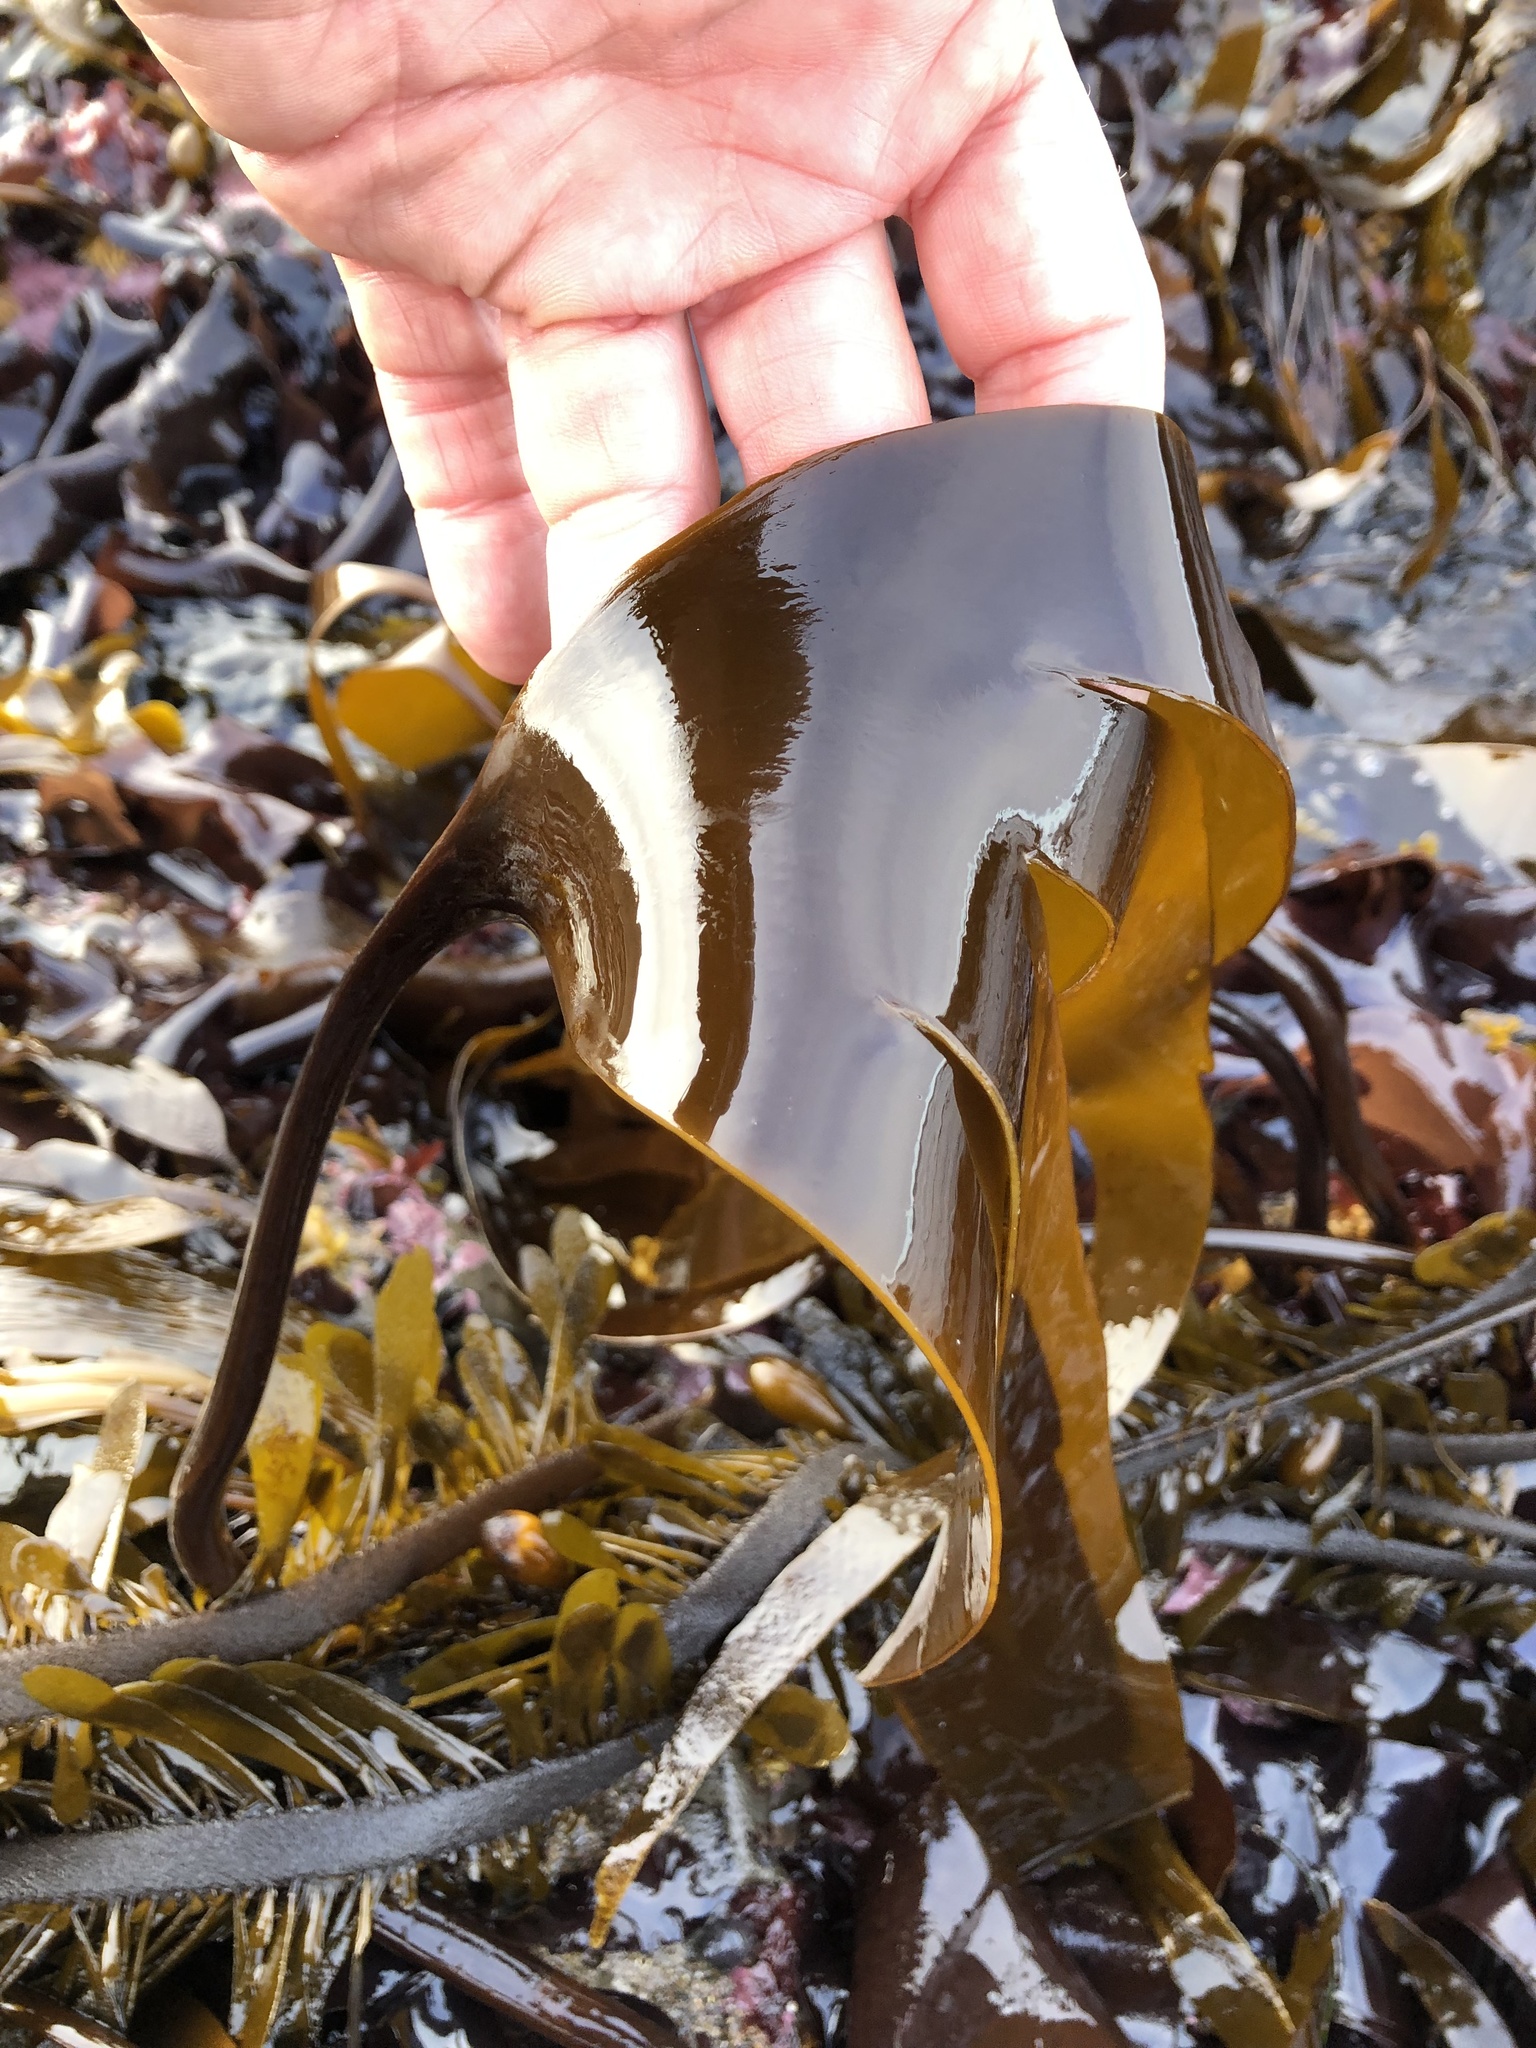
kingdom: Chromista
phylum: Ochrophyta
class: Phaeophyceae
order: Laminariales
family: Laminariaceae
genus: Laminaria
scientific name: Laminaria setchellii
